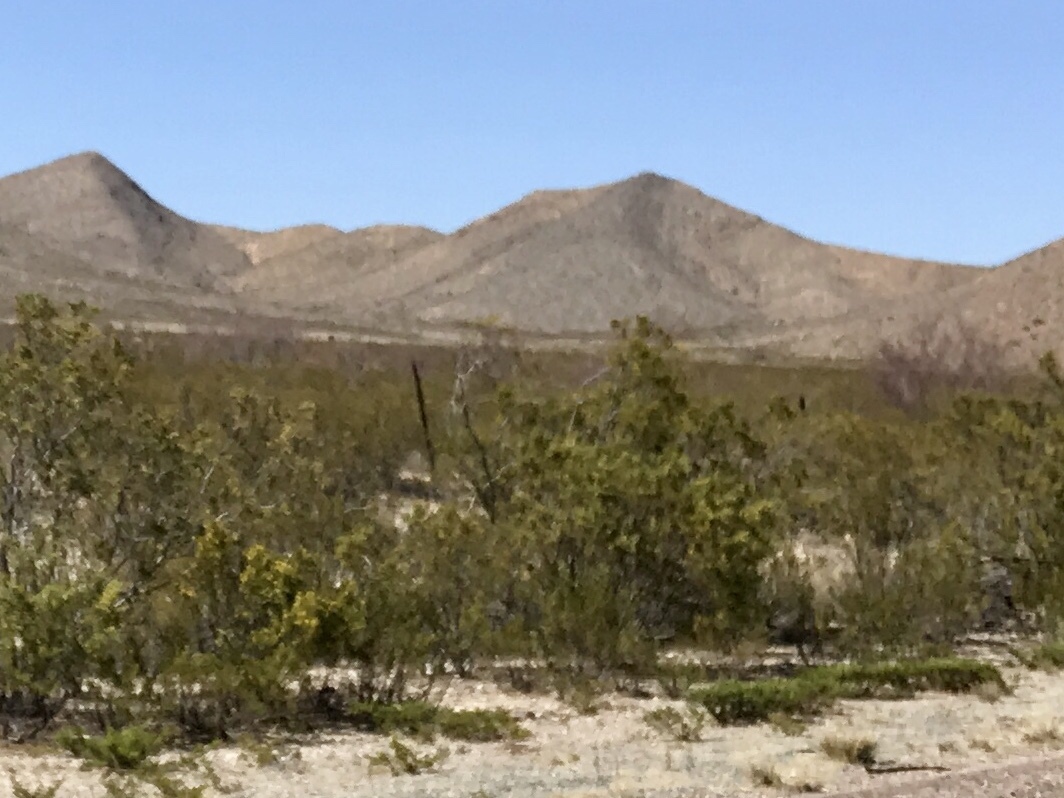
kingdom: Plantae
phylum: Tracheophyta
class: Magnoliopsida
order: Zygophyllales
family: Zygophyllaceae
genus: Larrea
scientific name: Larrea tridentata
